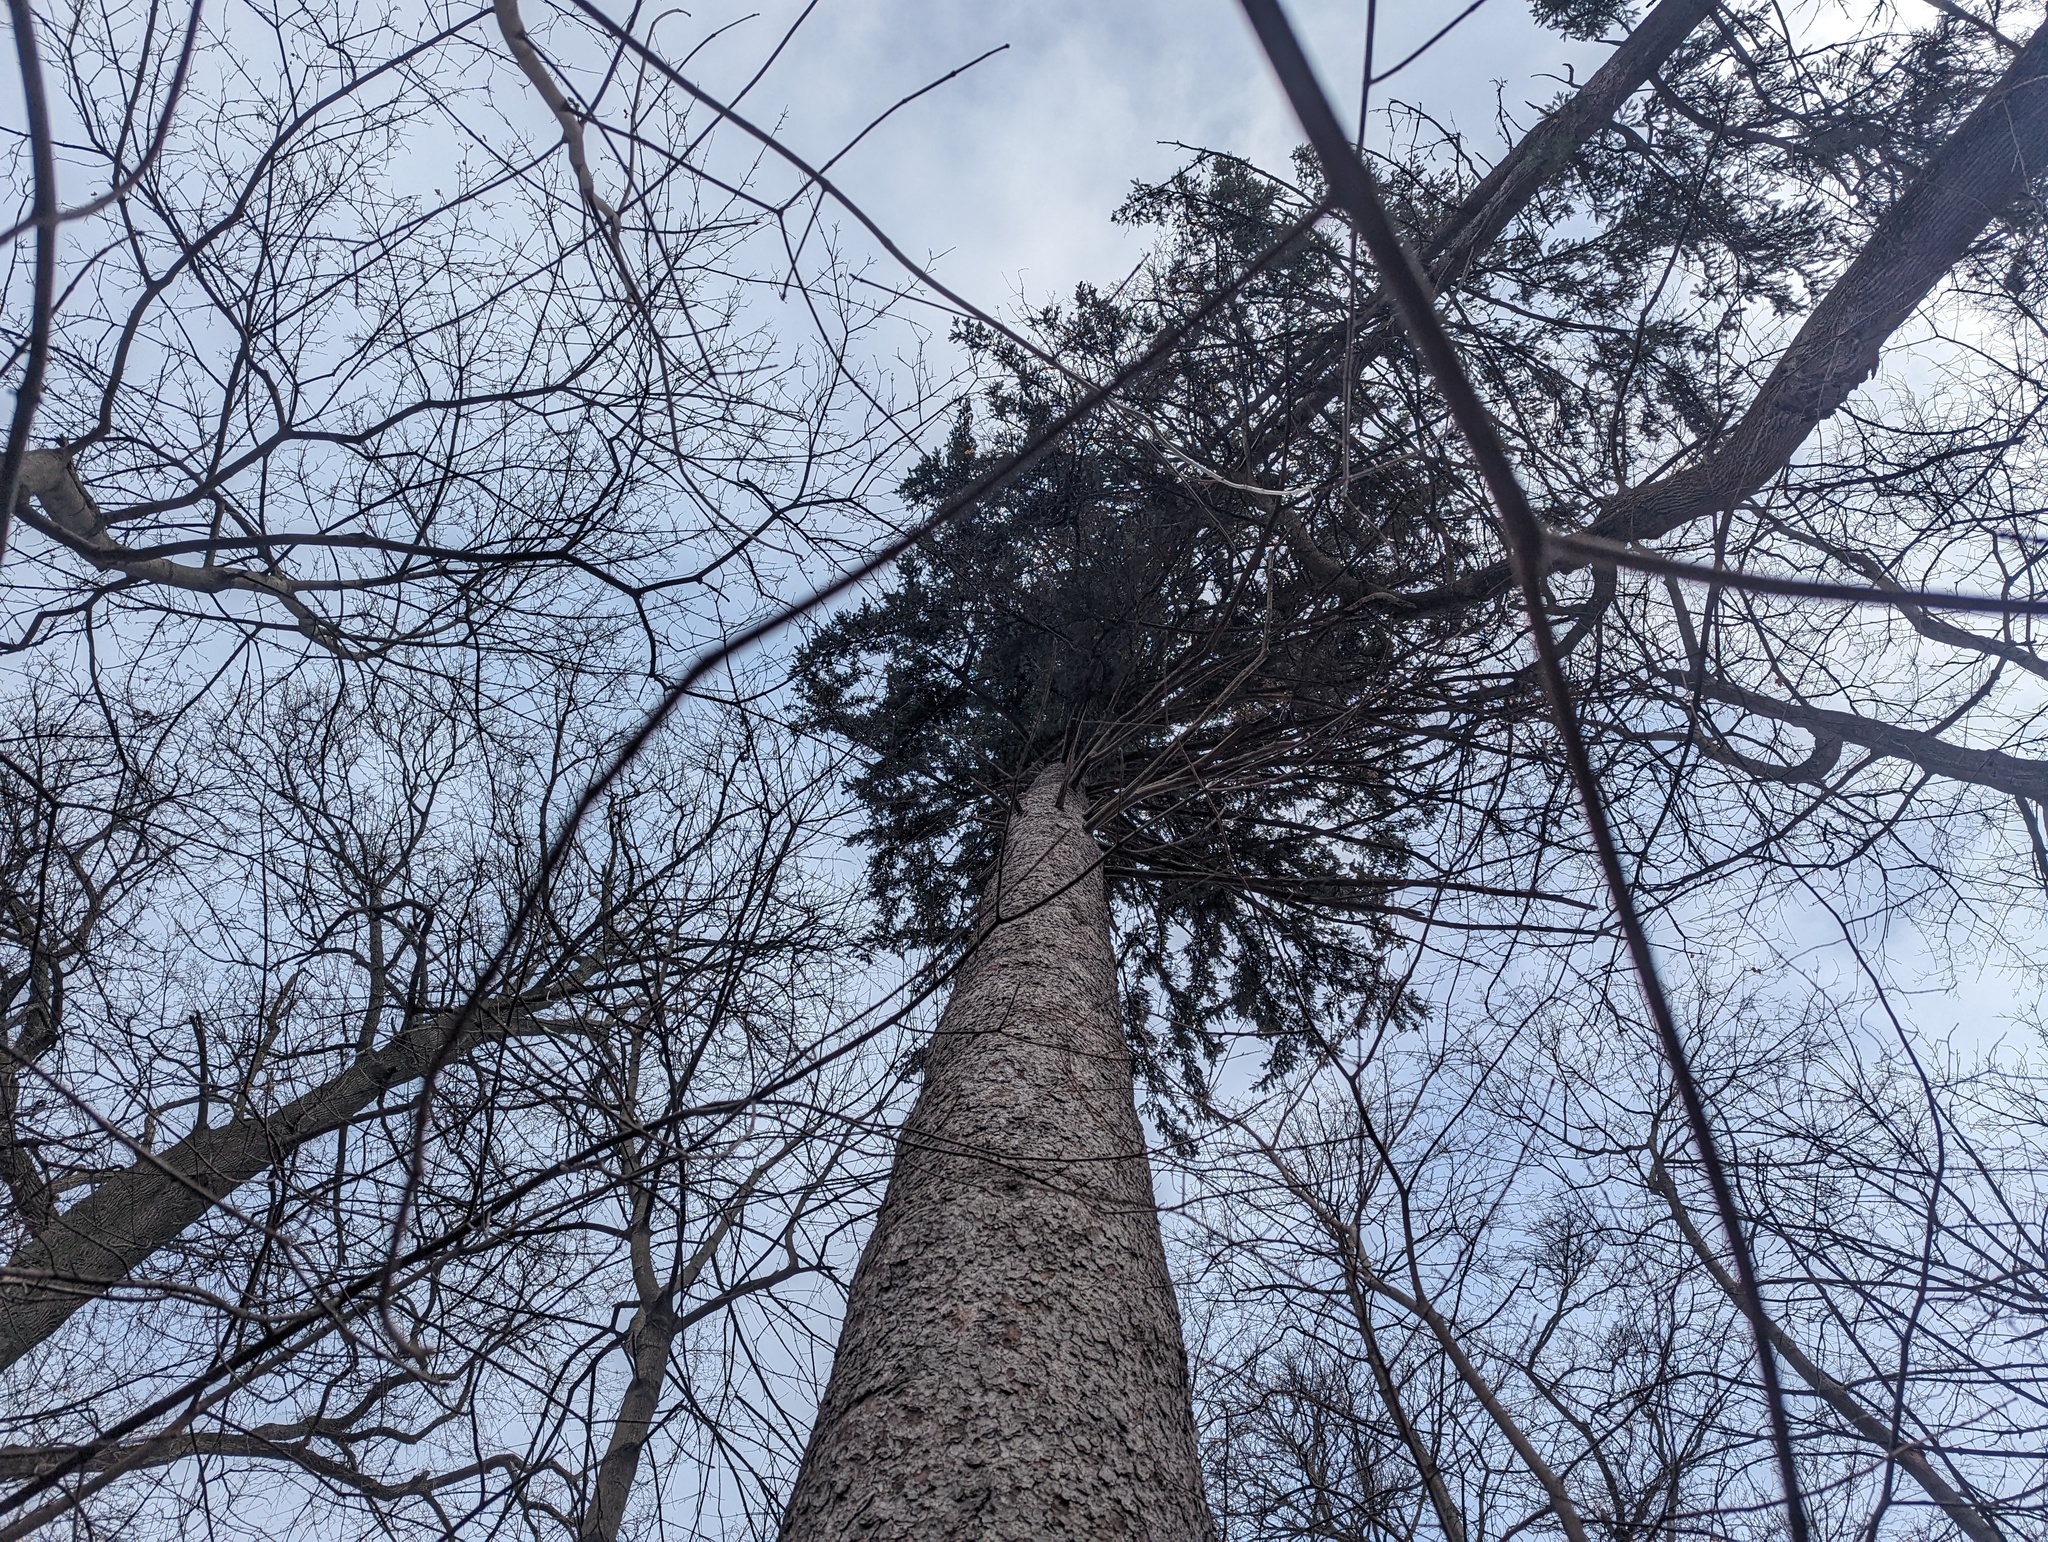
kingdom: Plantae
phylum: Tracheophyta
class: Pinopsida
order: Pinales
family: Pinaceae
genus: Picea
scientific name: Picea glauca
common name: White spruce
